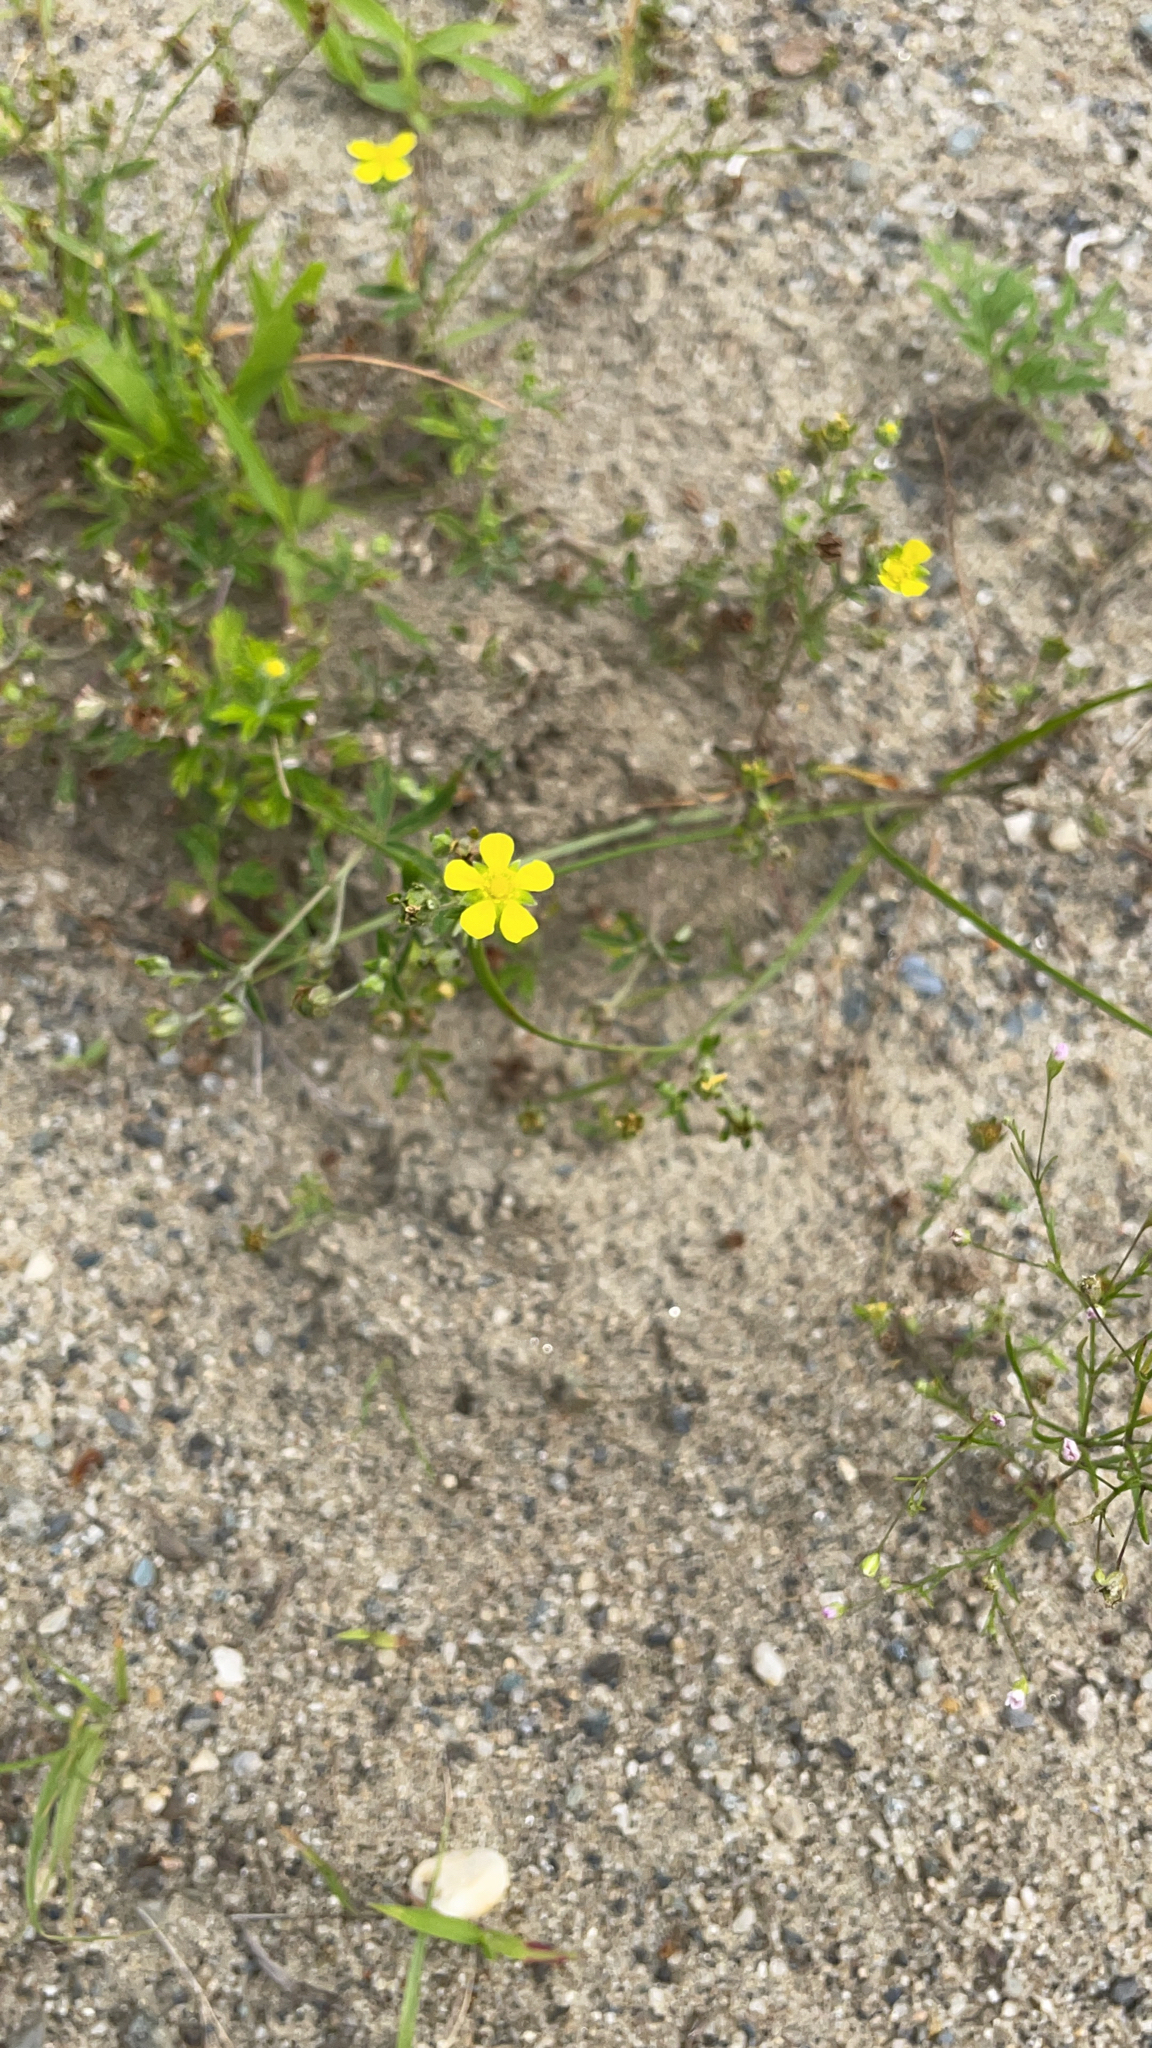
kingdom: Plantae
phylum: Tracheophyta
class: Magnoliopsida
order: Rosales
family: Rosaceae
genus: Potentilla
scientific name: Potentilla argentea
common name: Hoary cinquefoil
